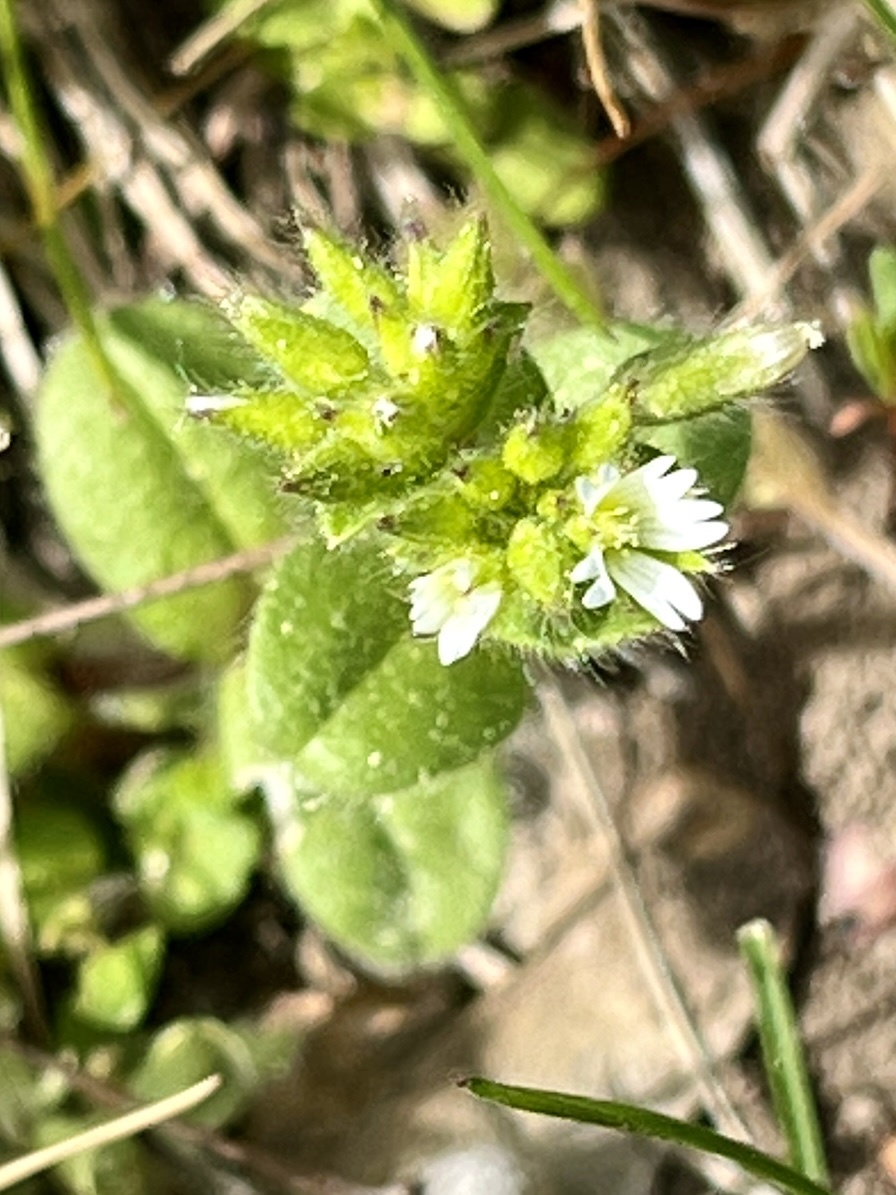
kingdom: Plantae
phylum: Tracheophyta
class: Magnoliopsida
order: Caryophyllales
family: Caryophyllaceae
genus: Cerastium
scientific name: Cerastium glomeratum
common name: Sticky chickweed
